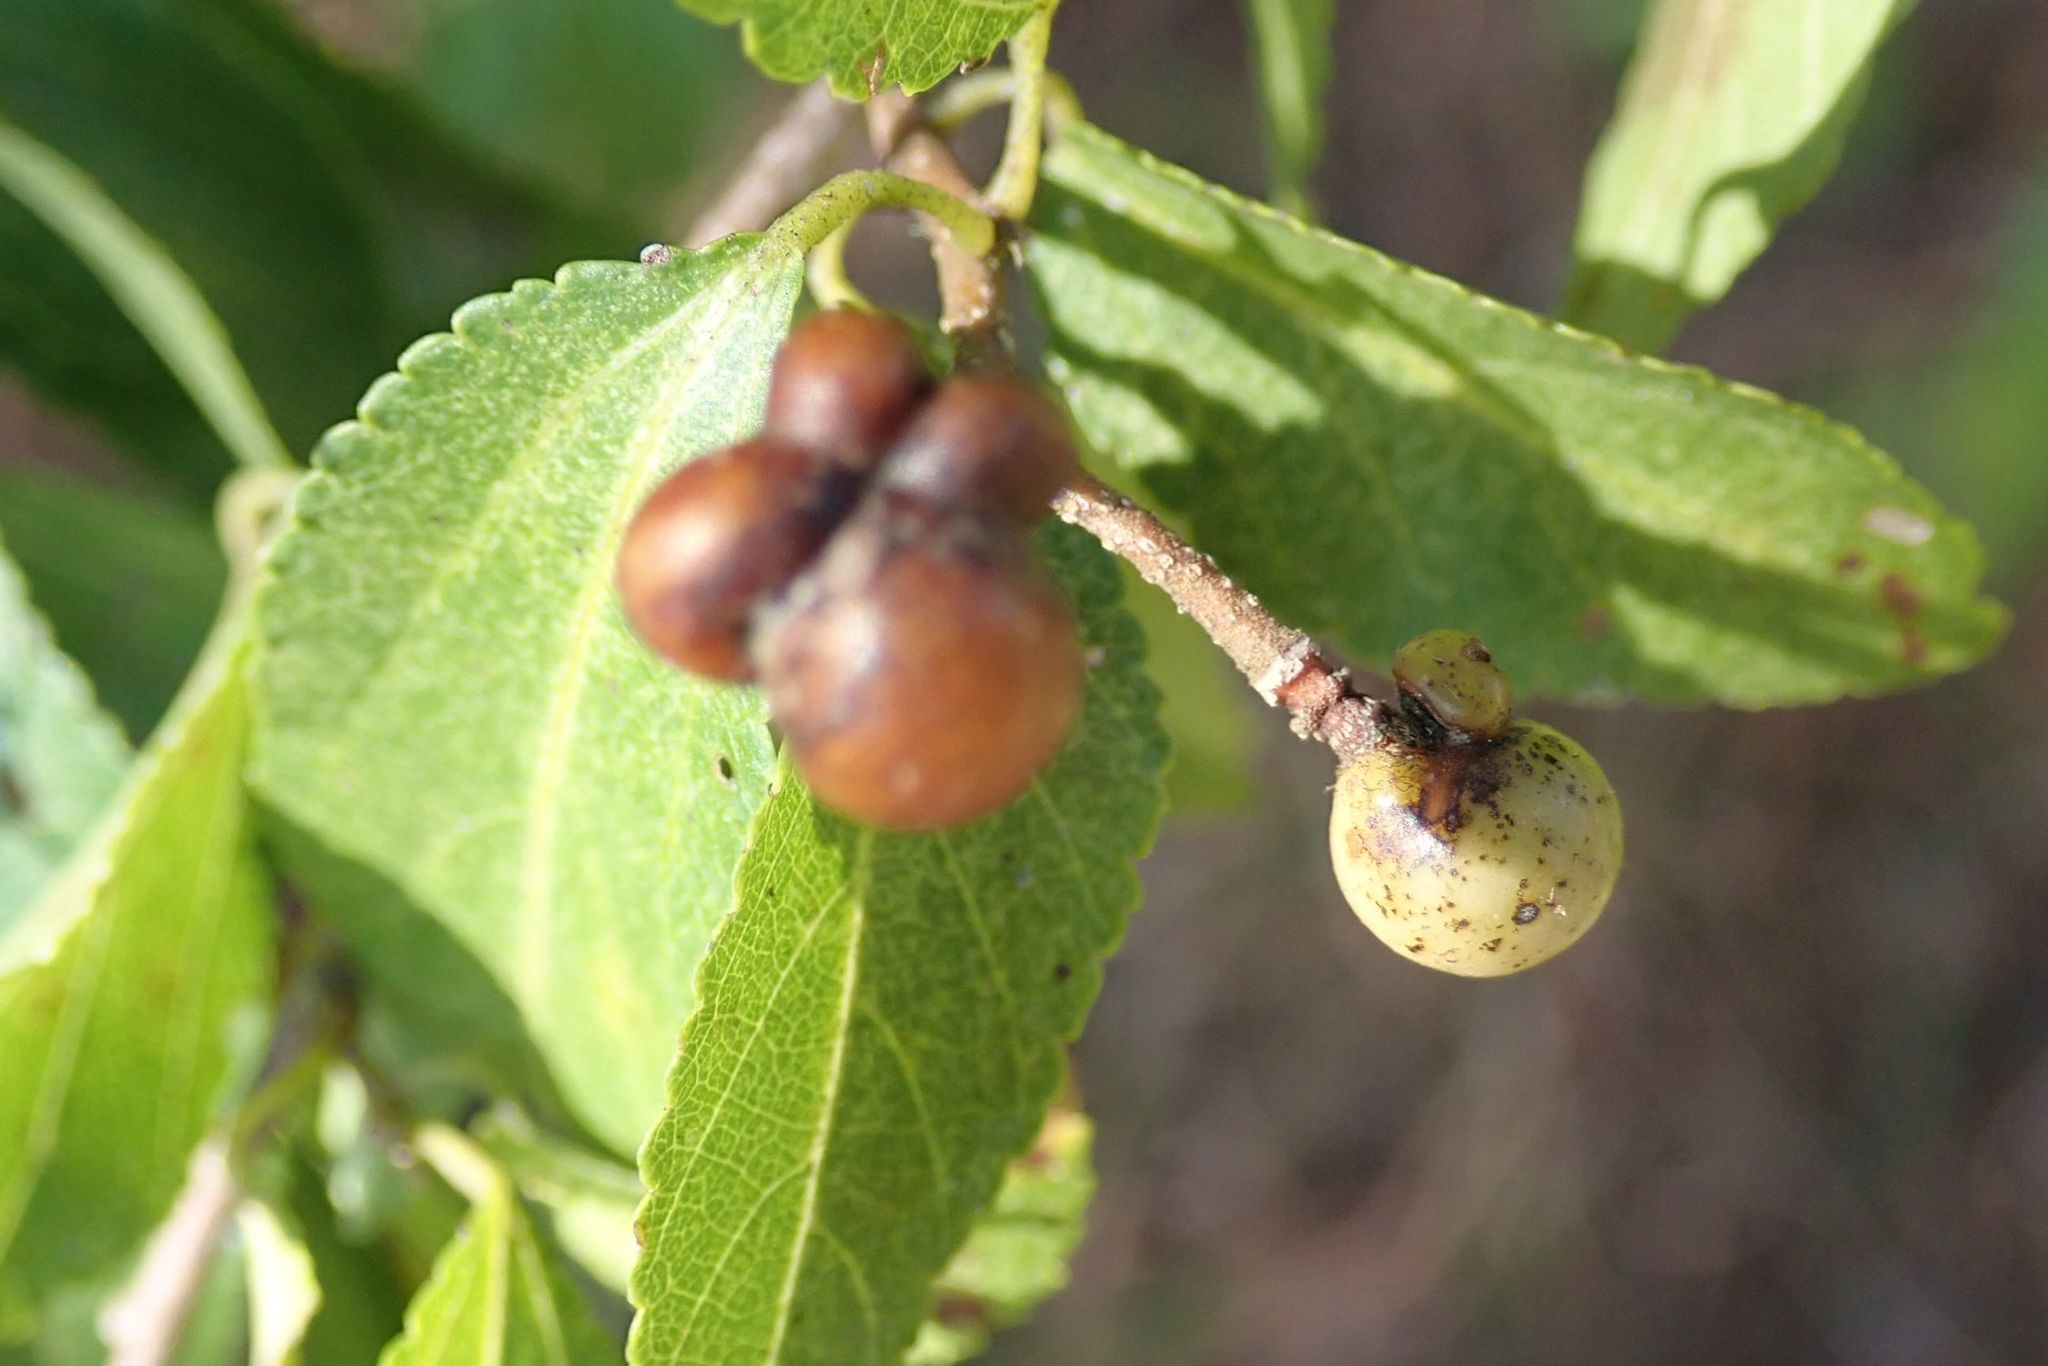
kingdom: Plantae
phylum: Tracheophyta
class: Magnoliopsida
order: Malvales
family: Malvaceae
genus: Grewia
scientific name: Grewia occidentalis
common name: Crossberry
